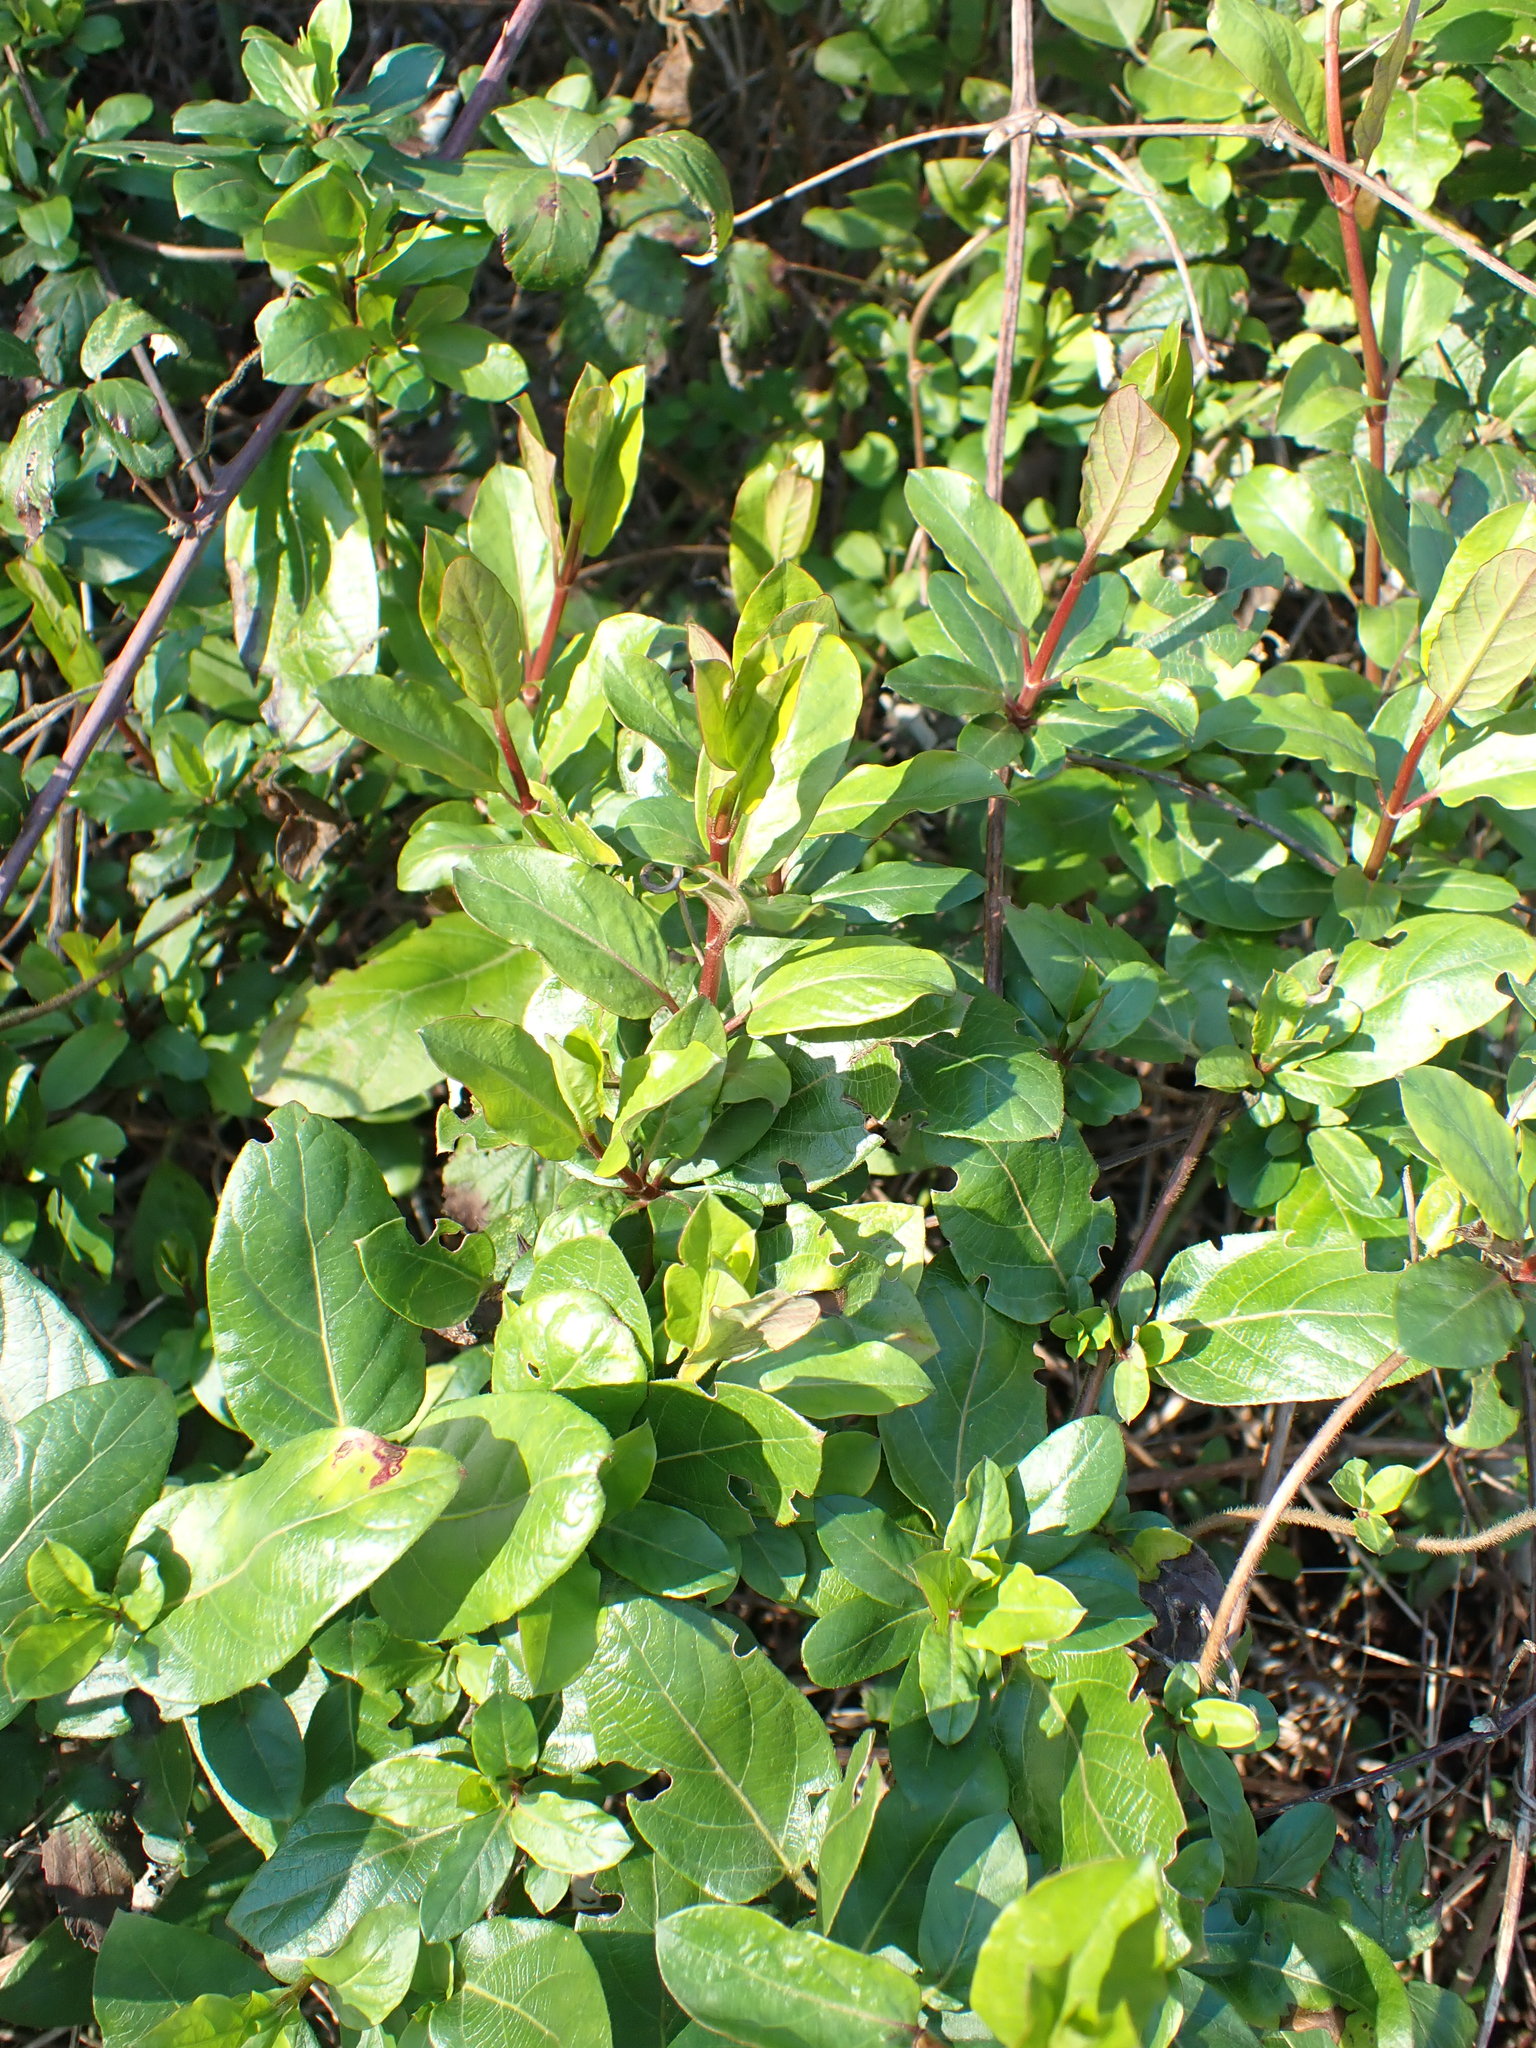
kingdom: Plantae
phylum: Tracheophyta
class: Magnoliopsida
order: Dipsacales
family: Caprifoliaceae
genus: Lonicera
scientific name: Lonicera japonica
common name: Japanese honeysuckle
